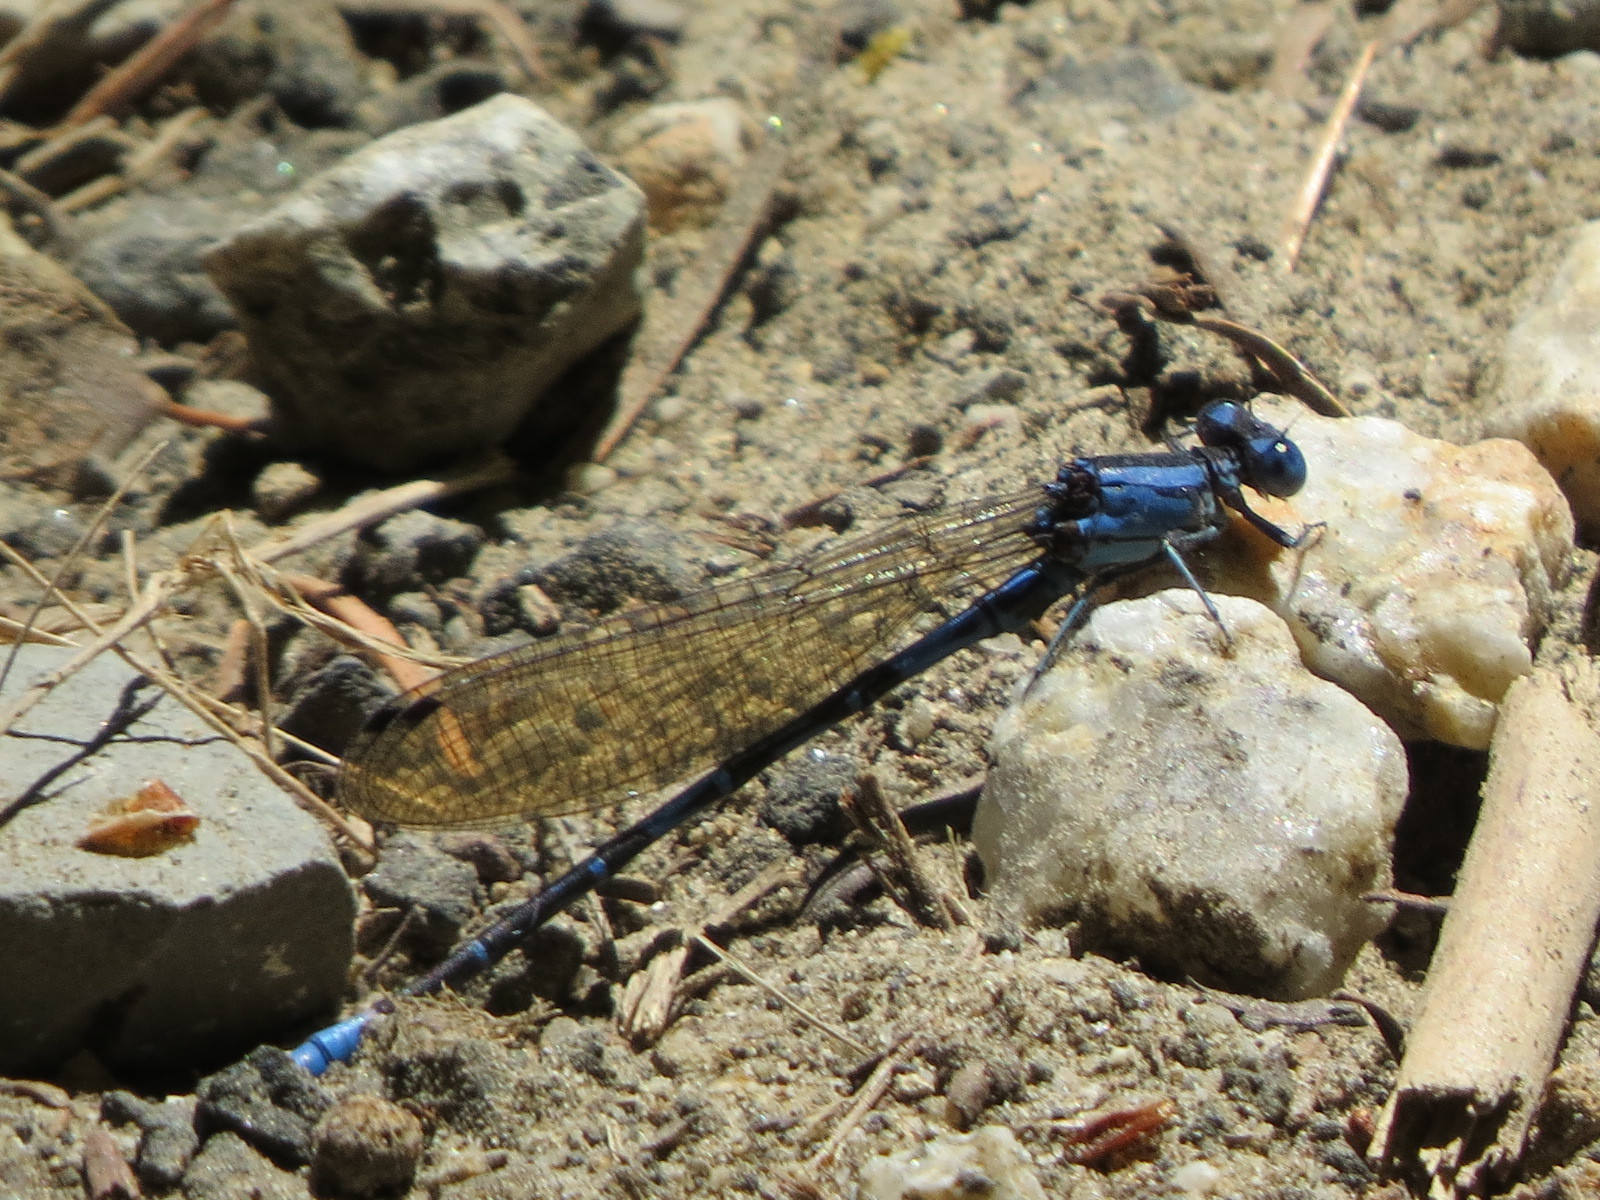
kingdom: Animalia
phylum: Arthropoda
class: Insecta
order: Odonata
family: Coenagrionidae
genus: Argia
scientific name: Argia vivida
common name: Vivid dancer
